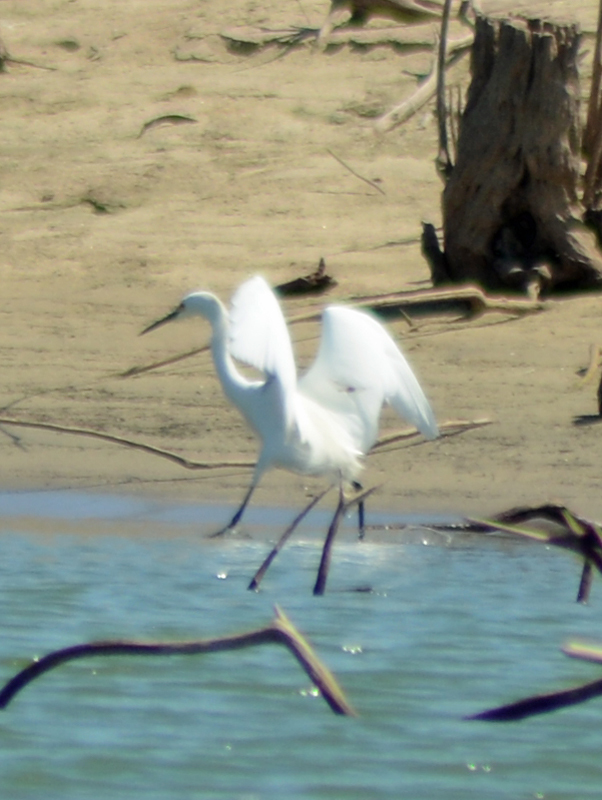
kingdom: Animalia
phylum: Chordata
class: Aves
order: Pelecaniformes
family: Ardeidae
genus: Egretta
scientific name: Egretta thula
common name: Snowy egret
